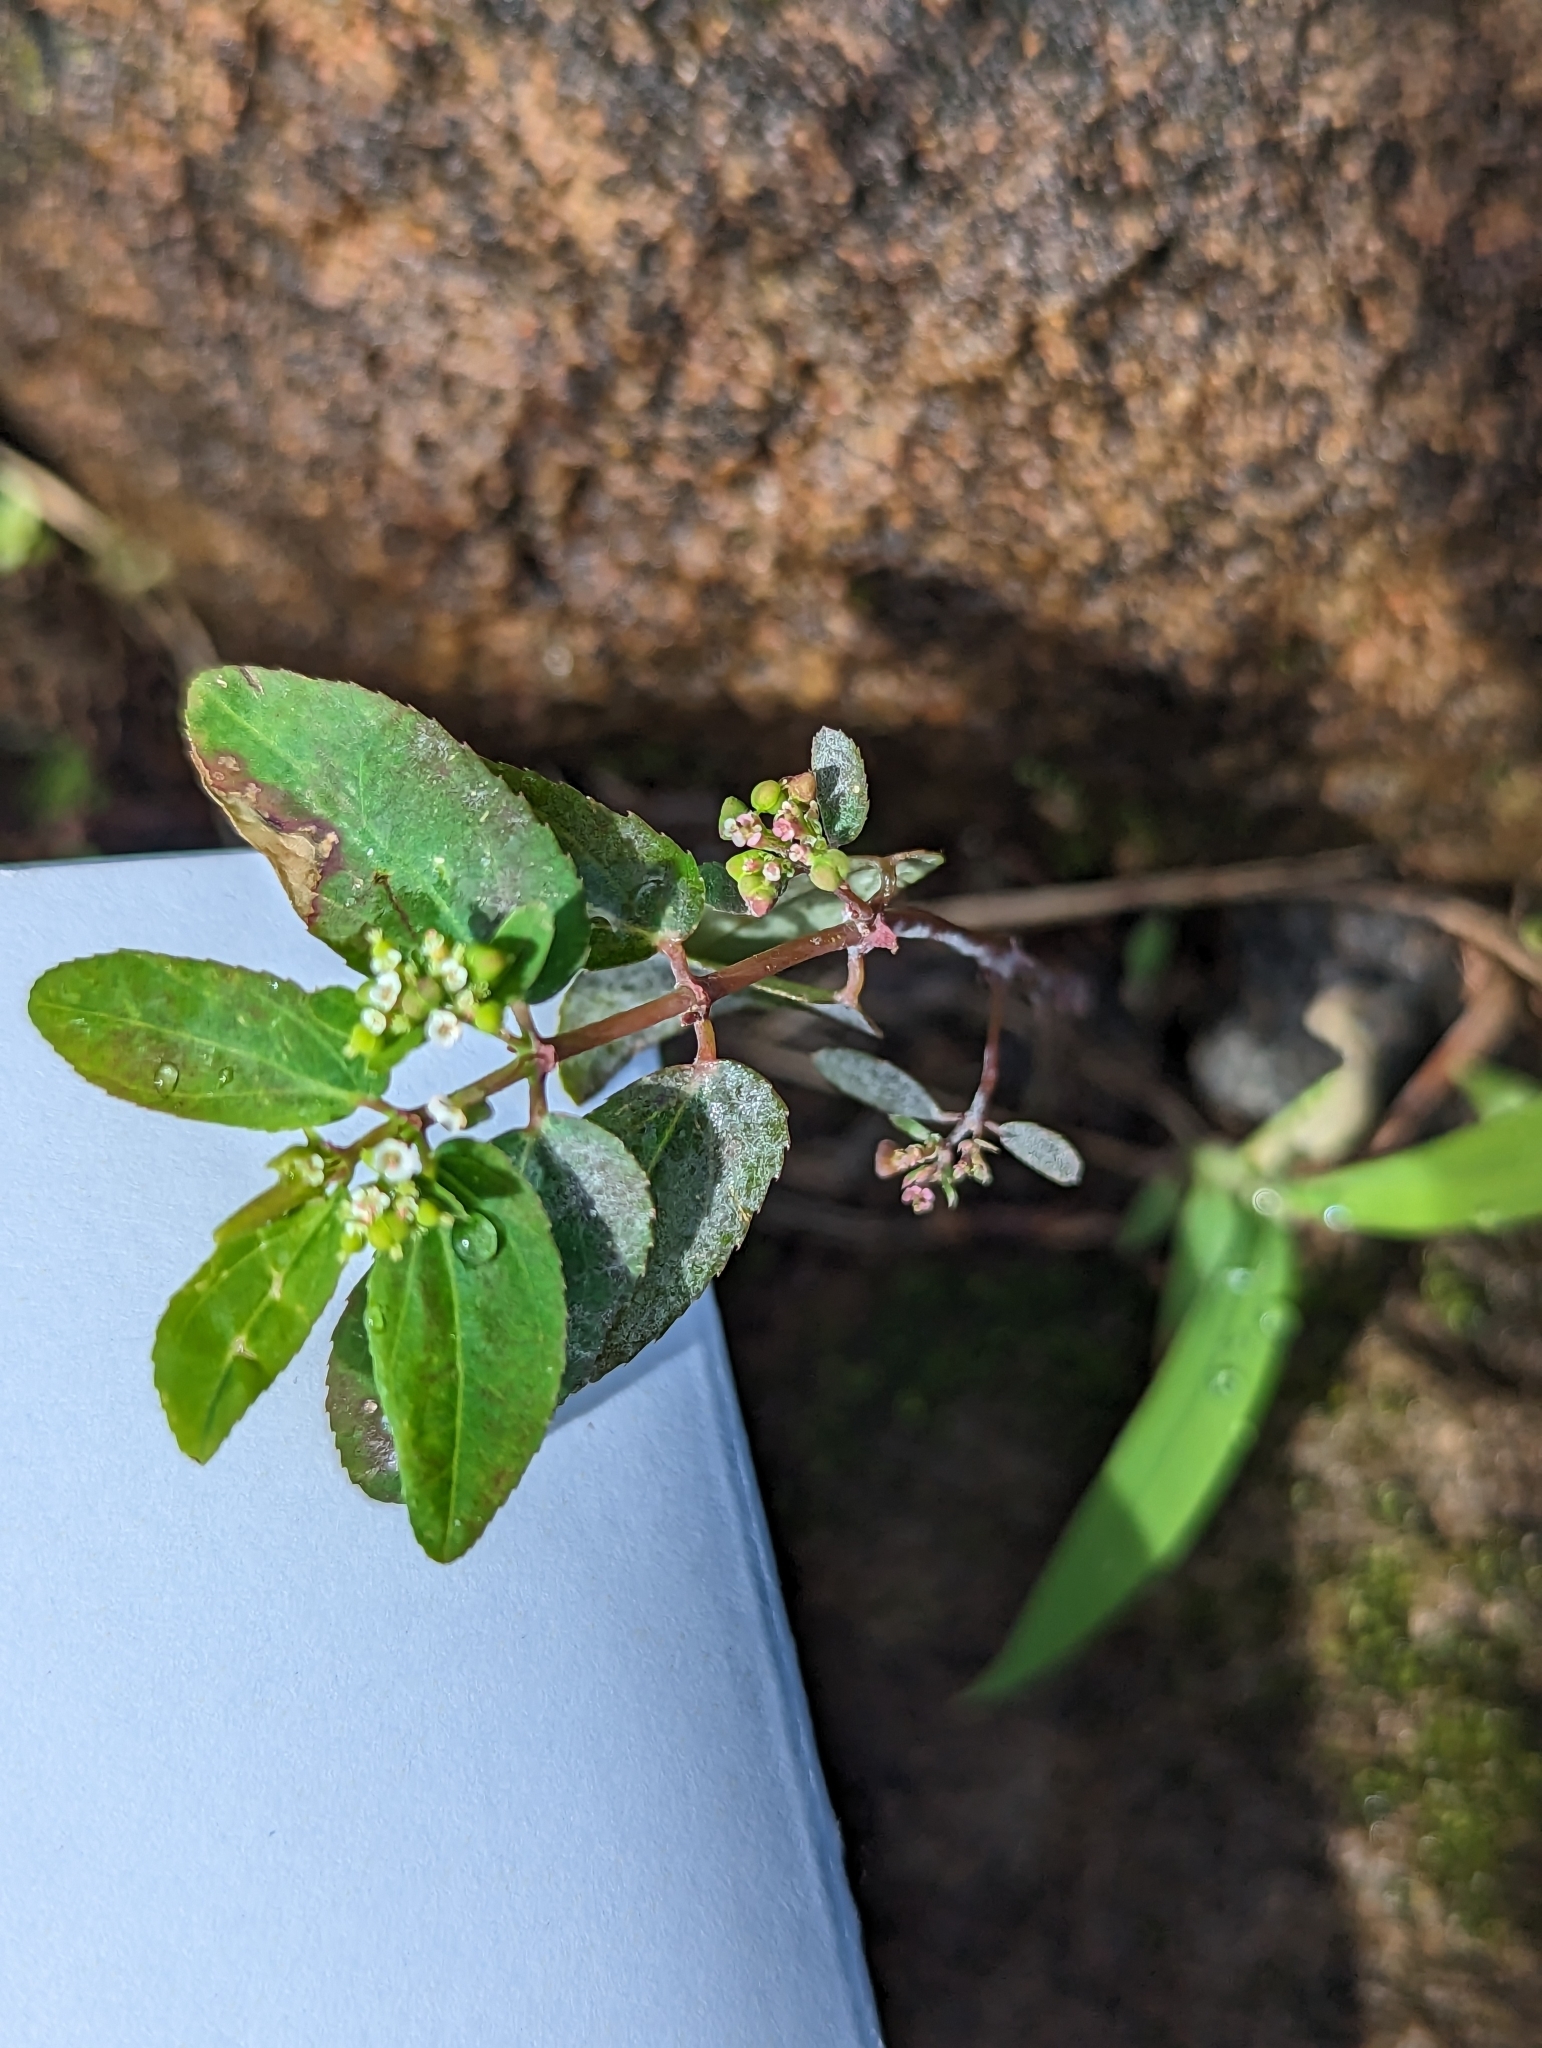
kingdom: Plantae
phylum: Tracheophyta
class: Magnoliopsida
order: Malpighiales
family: Euphorbiaceae
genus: Euphorbia
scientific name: Euphorbia hypericifolia
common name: Graceful sandmat
